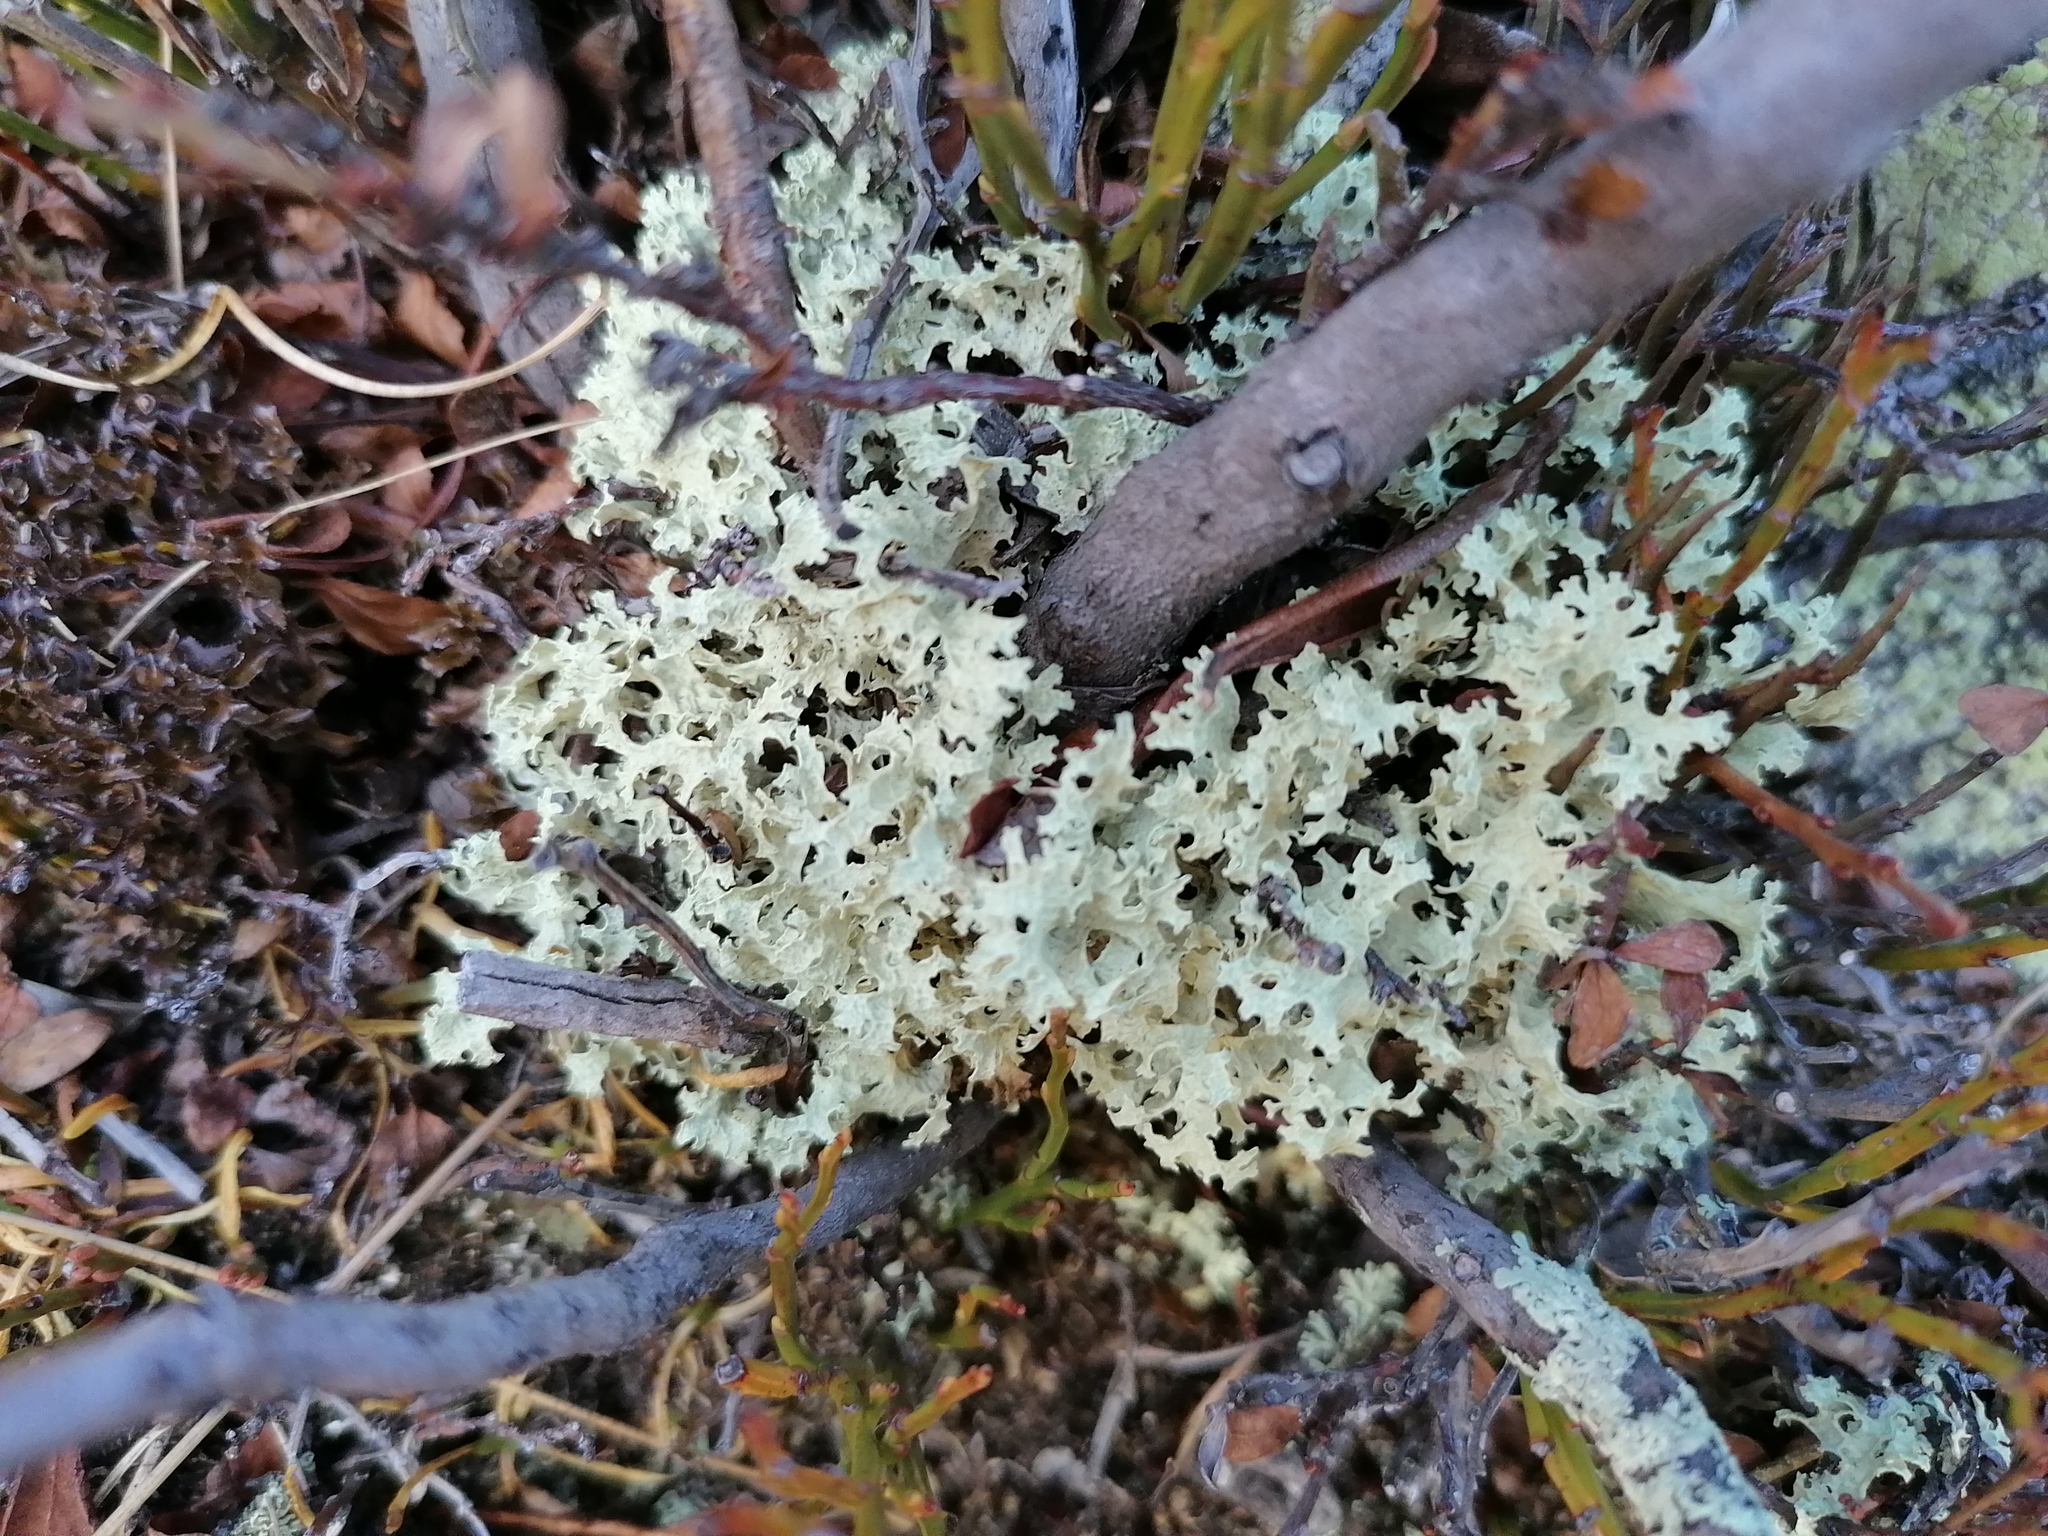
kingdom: Fungi
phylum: Ascomycota
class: Lecanoromycetes
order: Lecanorales
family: Parmeliaceae
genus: Nephromopsis
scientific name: Nephromopsis nivalis
